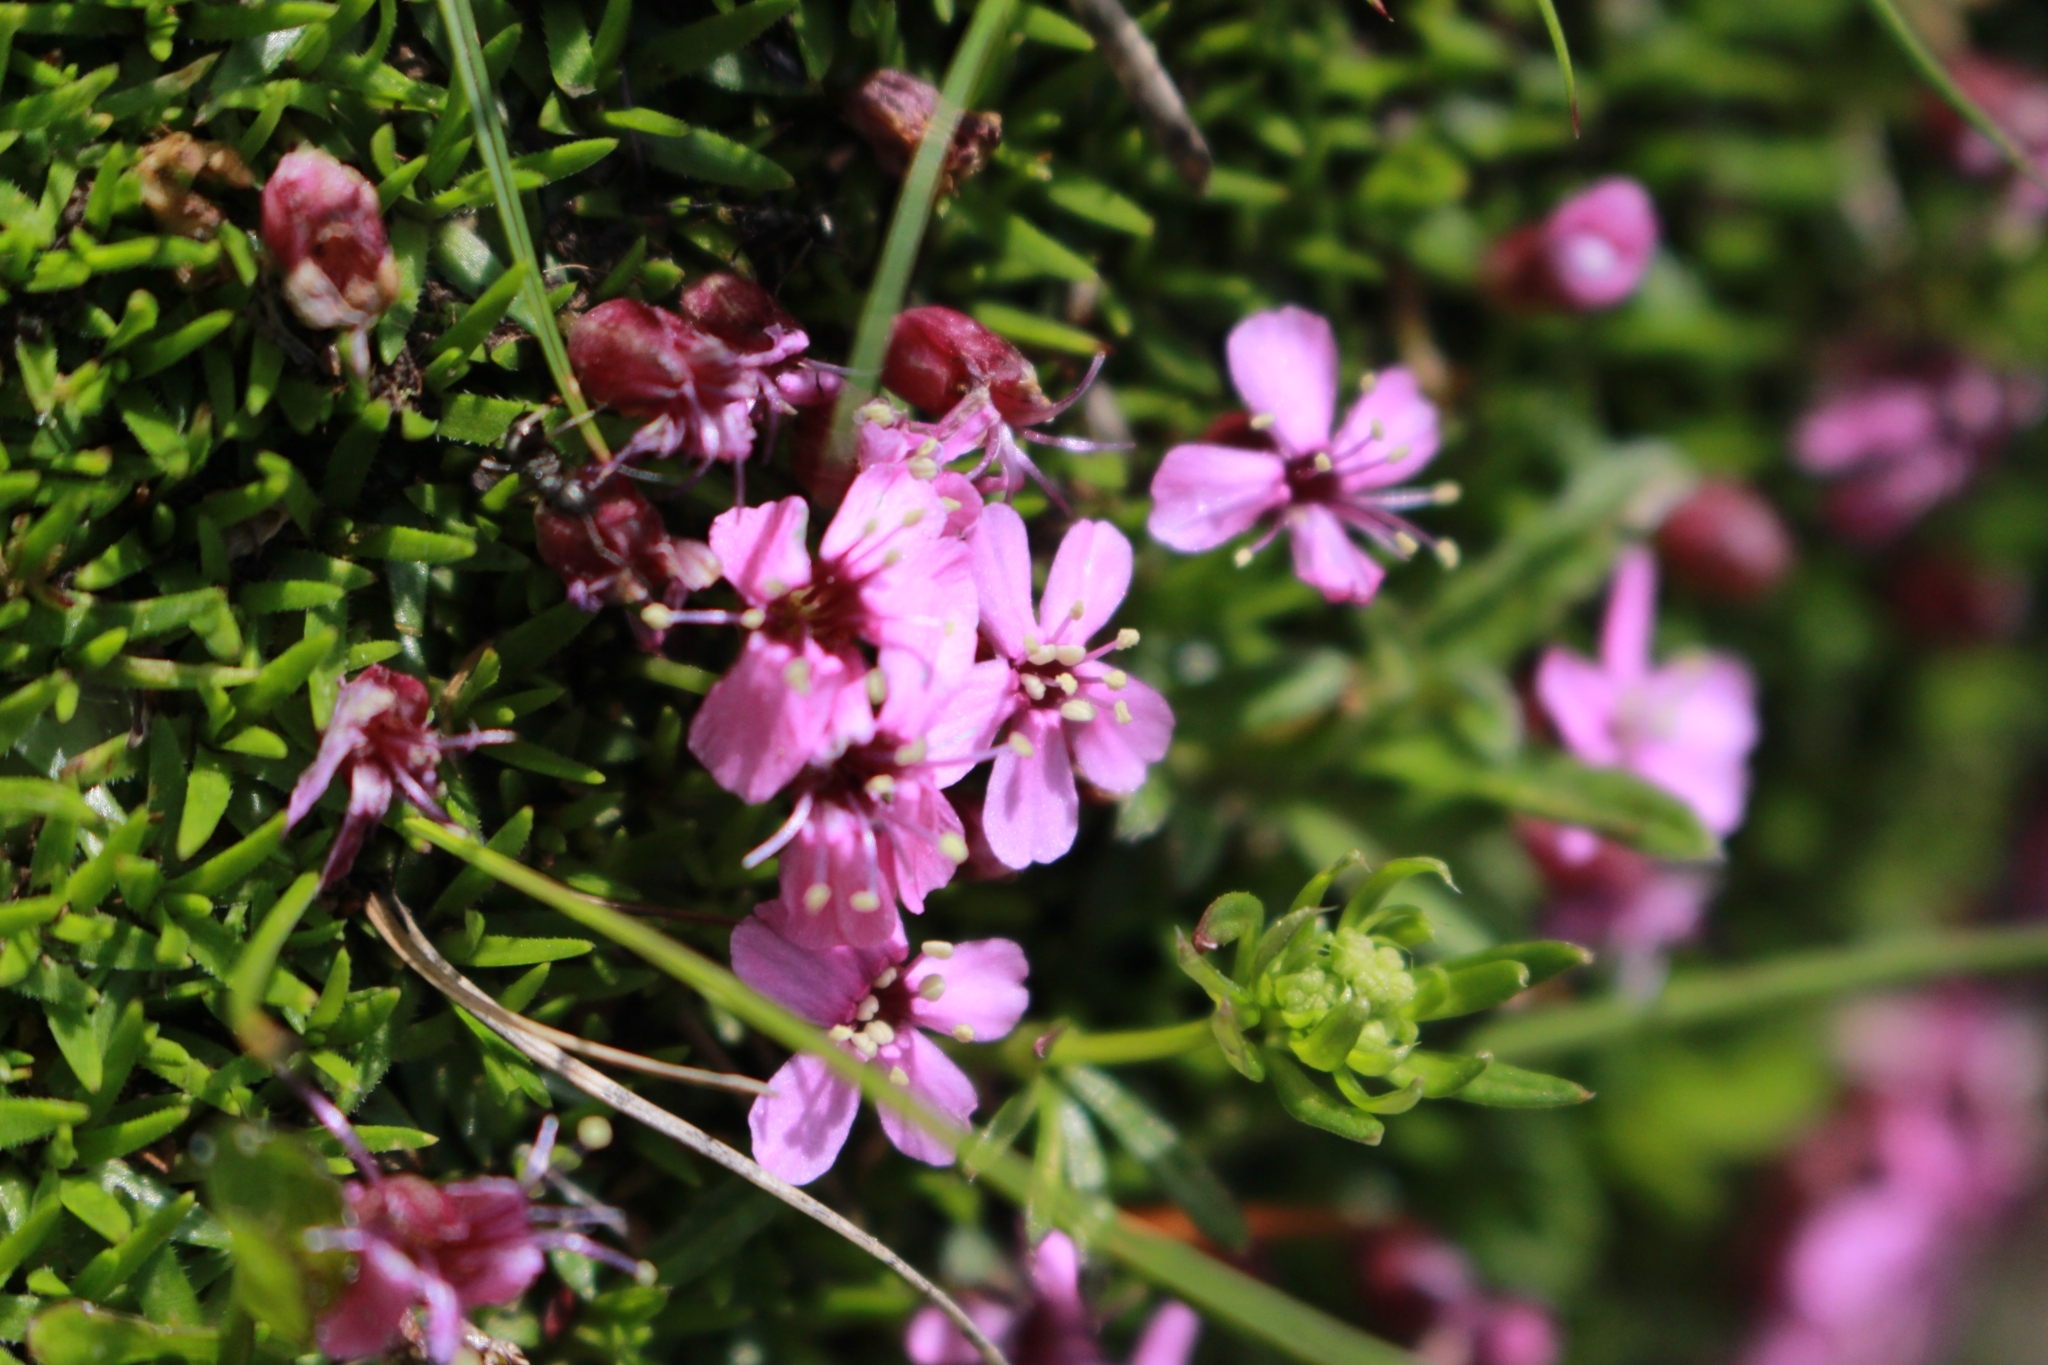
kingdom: Plantae
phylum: Tracheophyta
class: Magnoliopsida
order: Caryophyllales
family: Caryophyllaceae
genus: Silene
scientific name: Silene acaulis
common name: Moss campion
